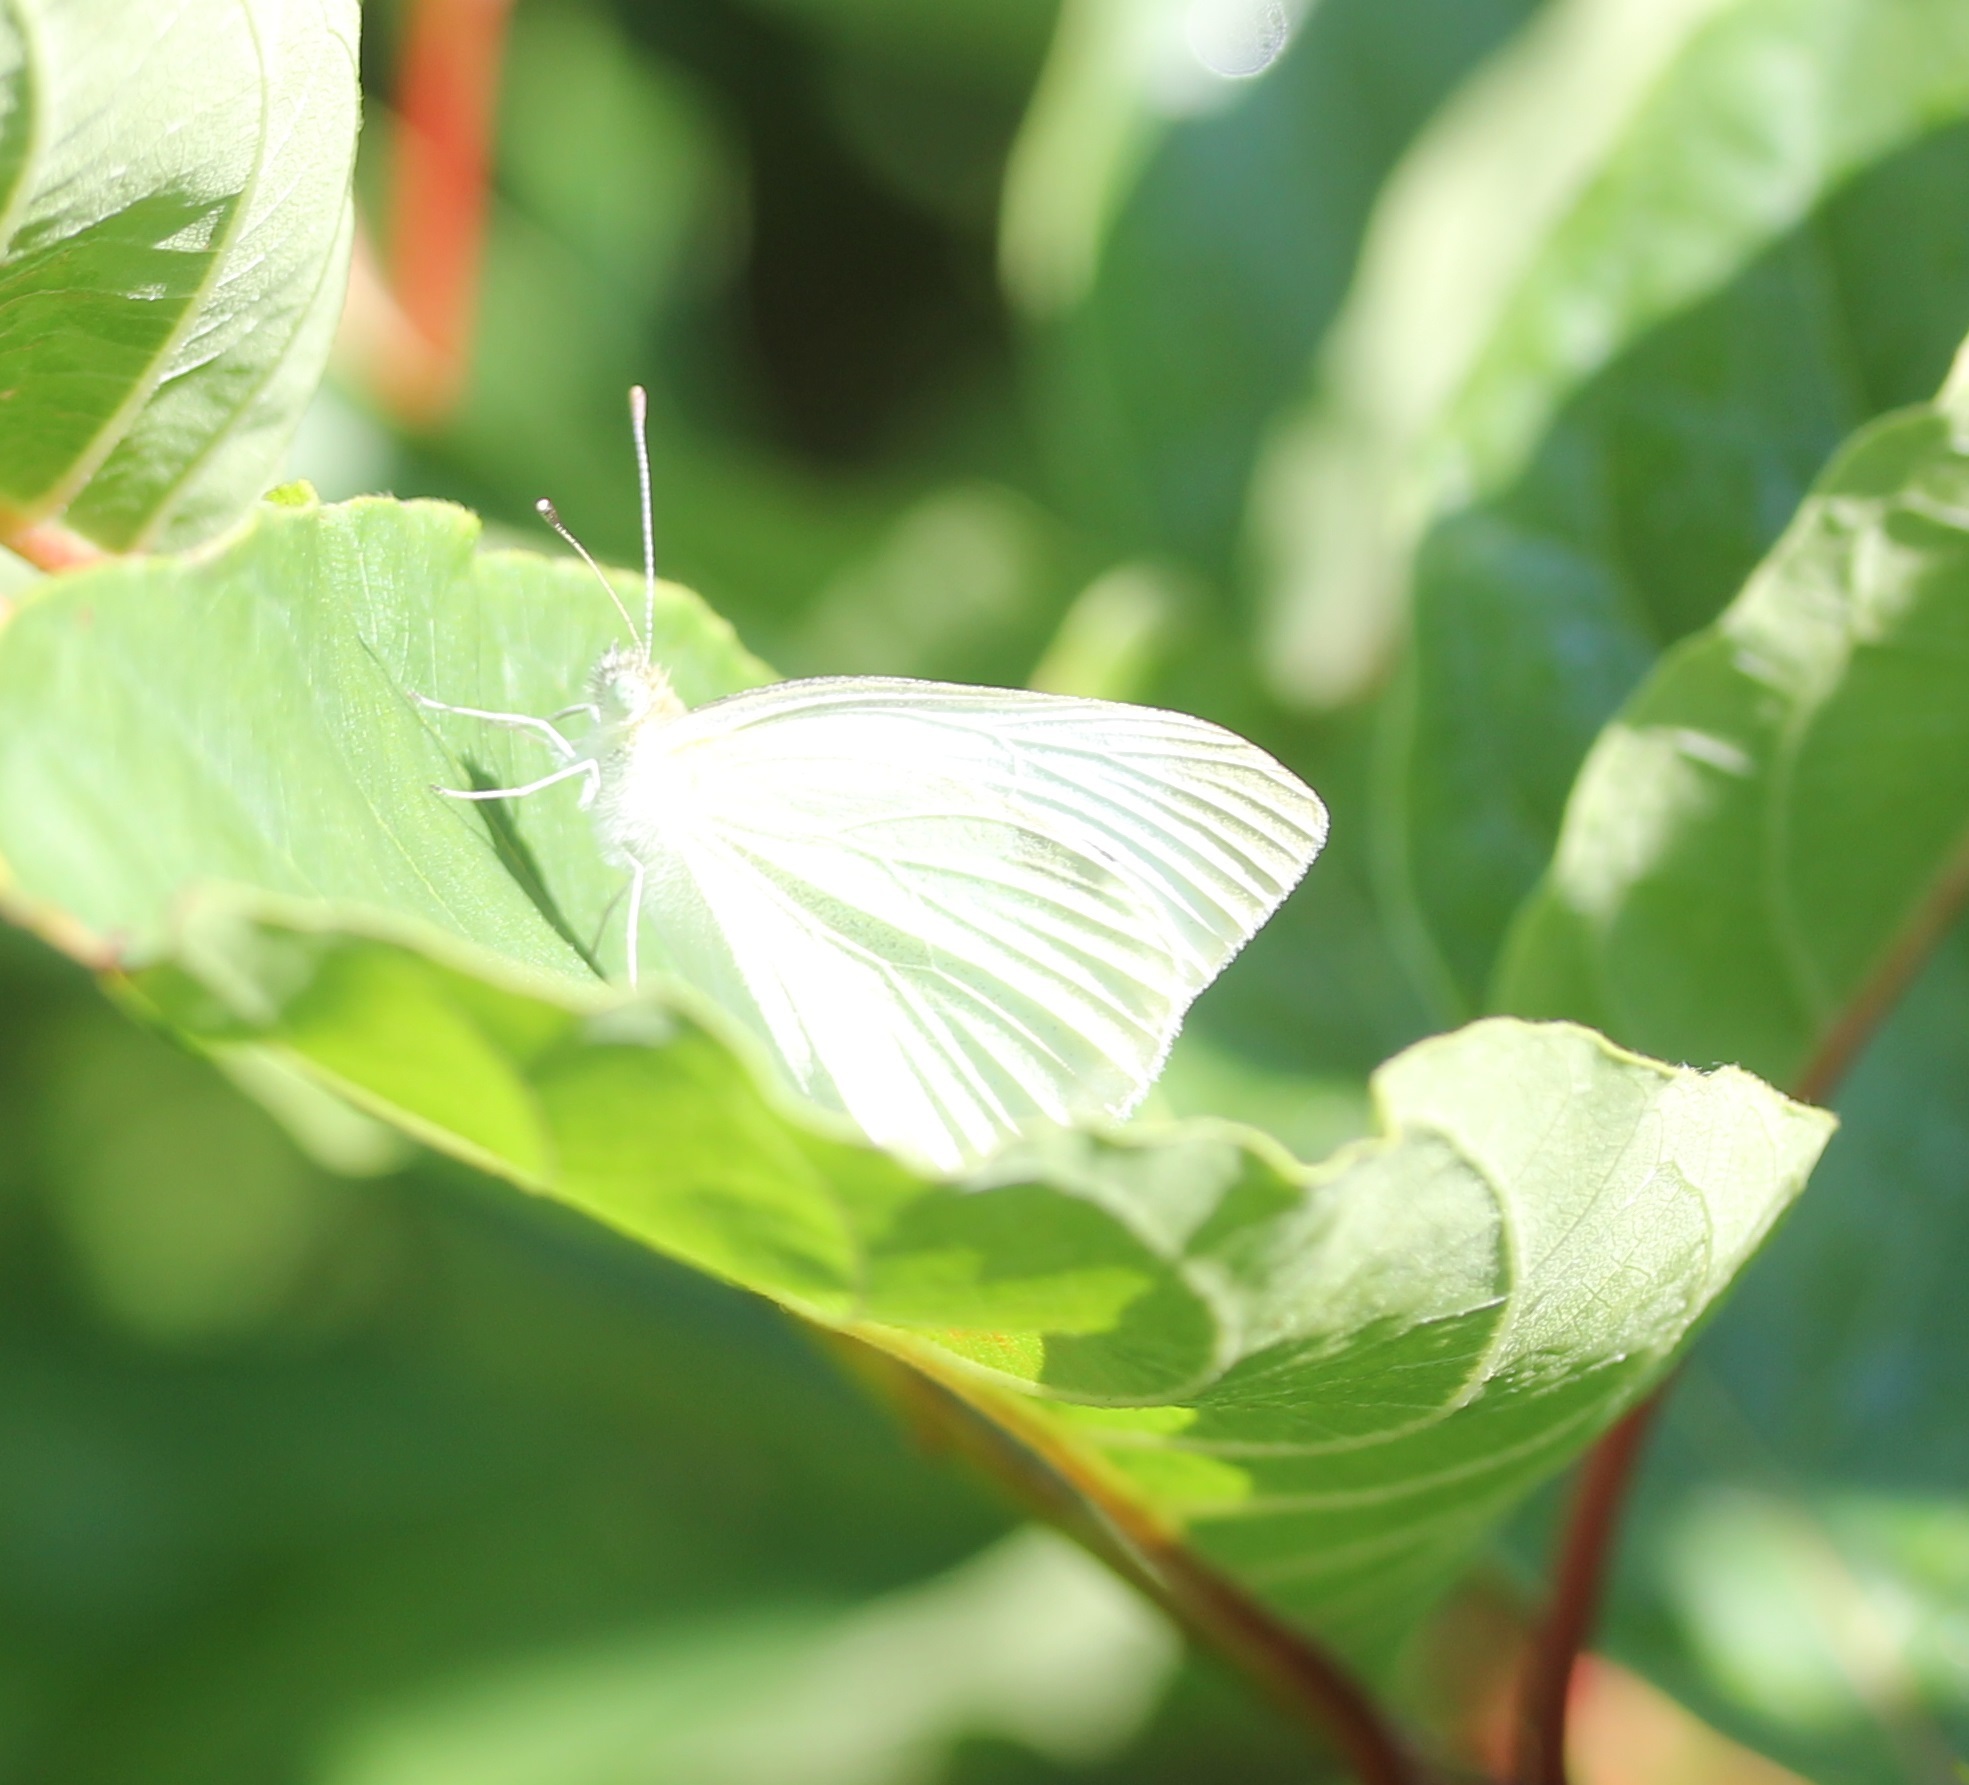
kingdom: Animalia
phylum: Arthropoda
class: Insecta
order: Lepidoptera
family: Pieridae
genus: Pieris
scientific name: Pieris rapae
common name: Small white
